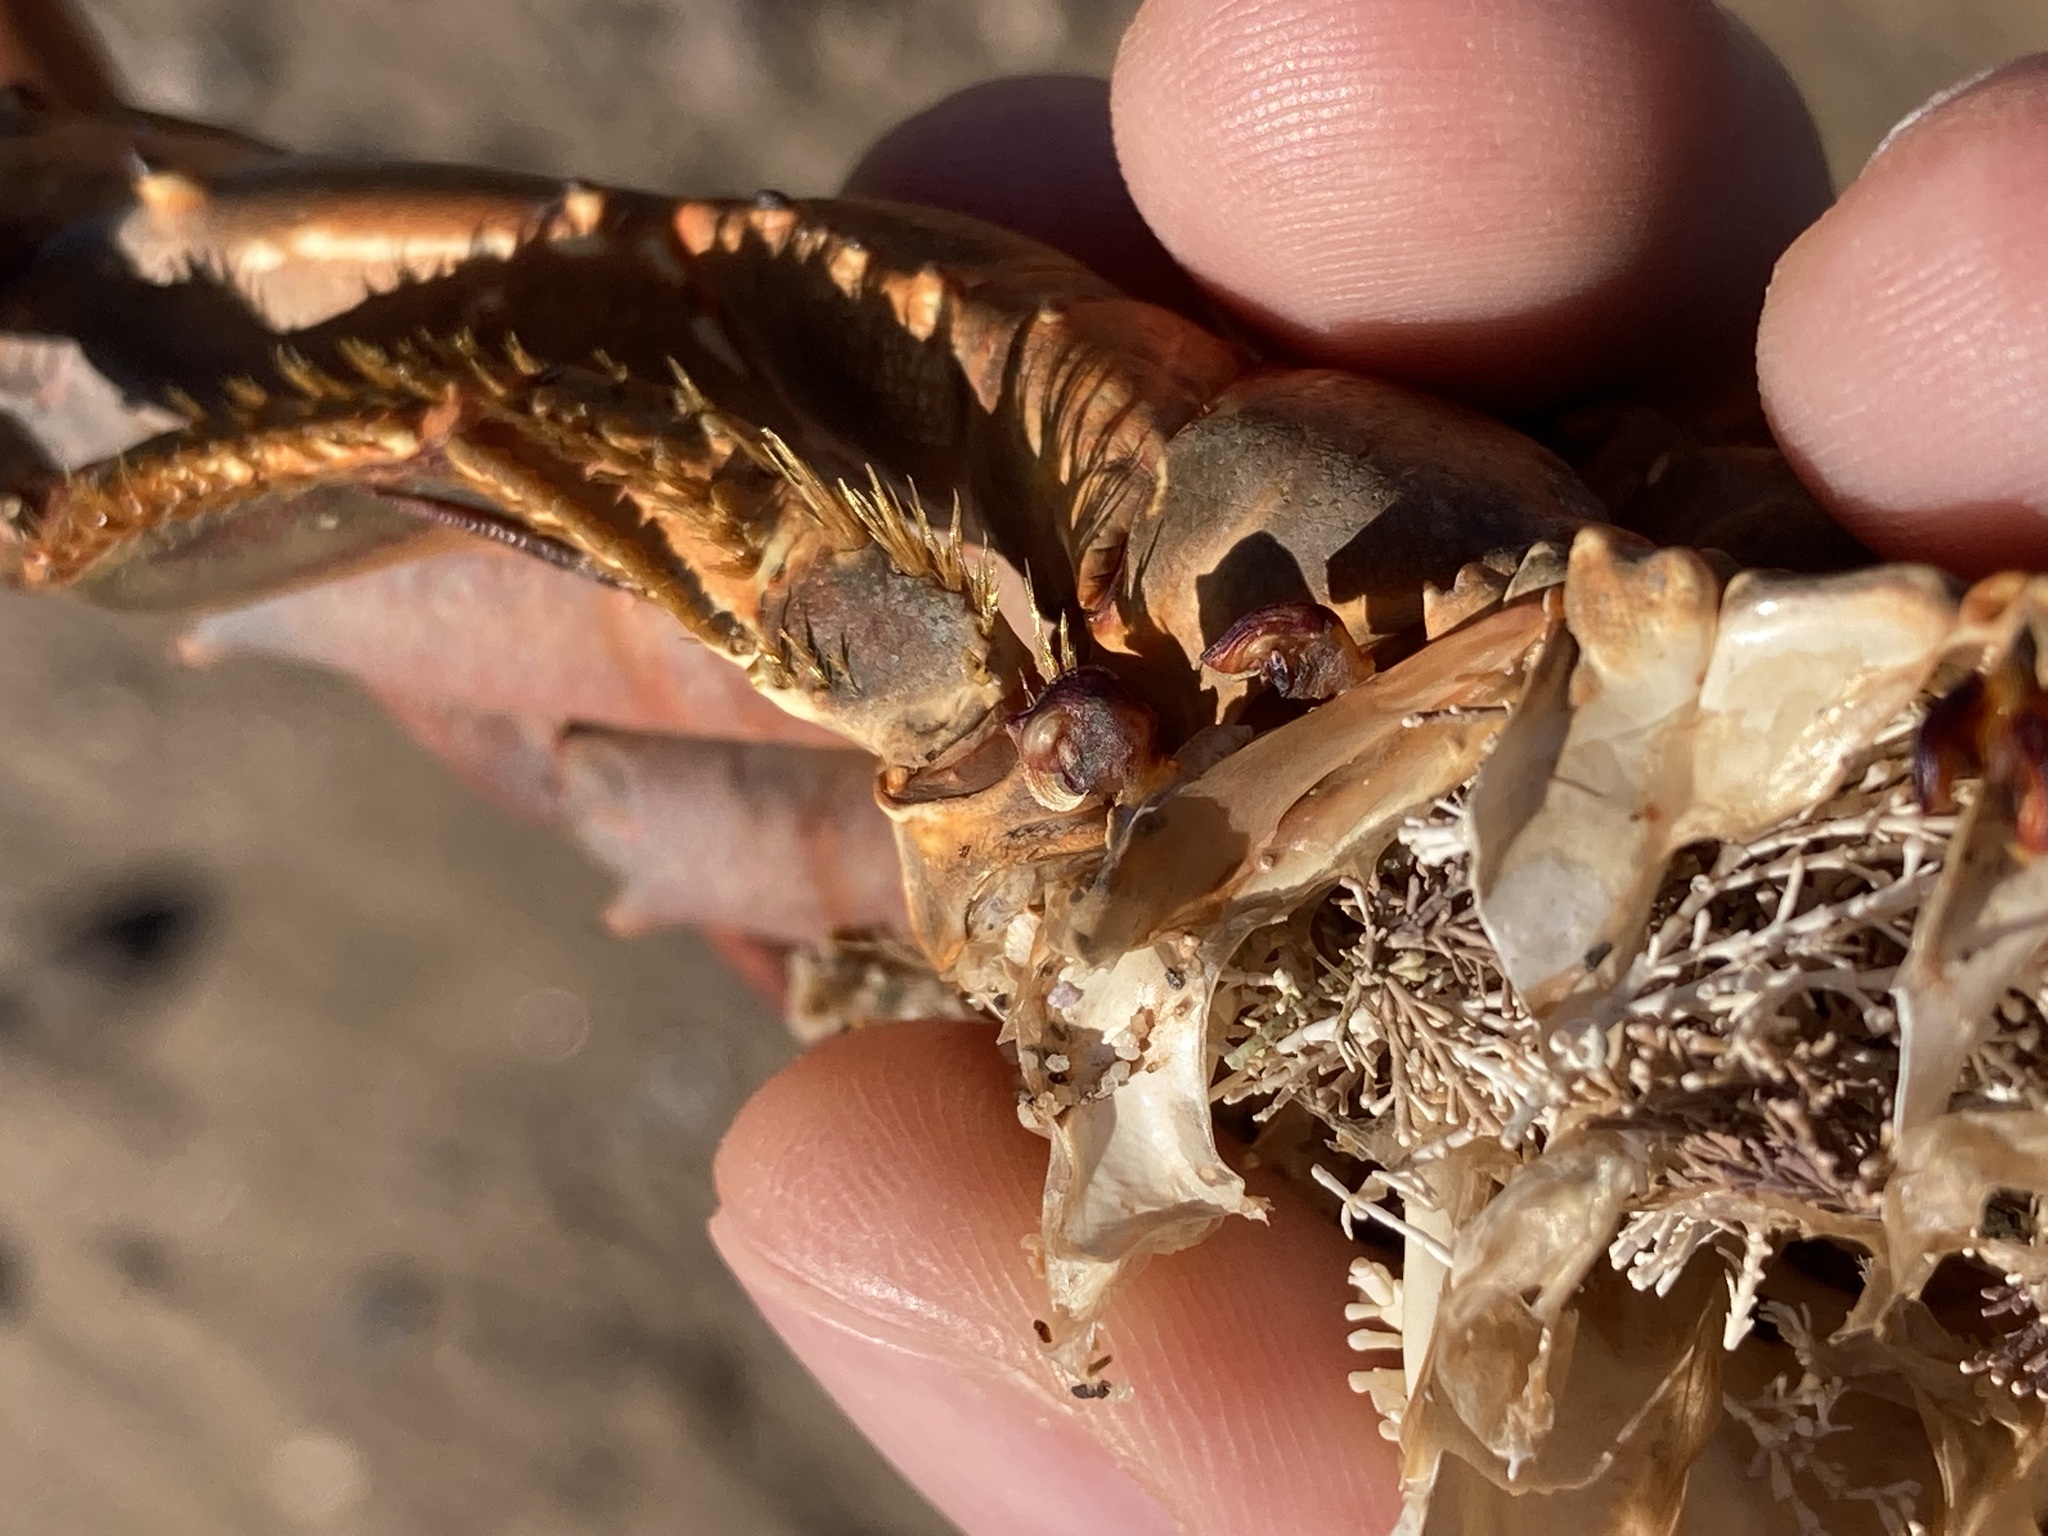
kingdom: Animalia
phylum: Arthropoda
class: Maxillopoda
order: Pedunculata
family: Heteralepadidae
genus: Paralepas
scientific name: Paralepas quadrata
